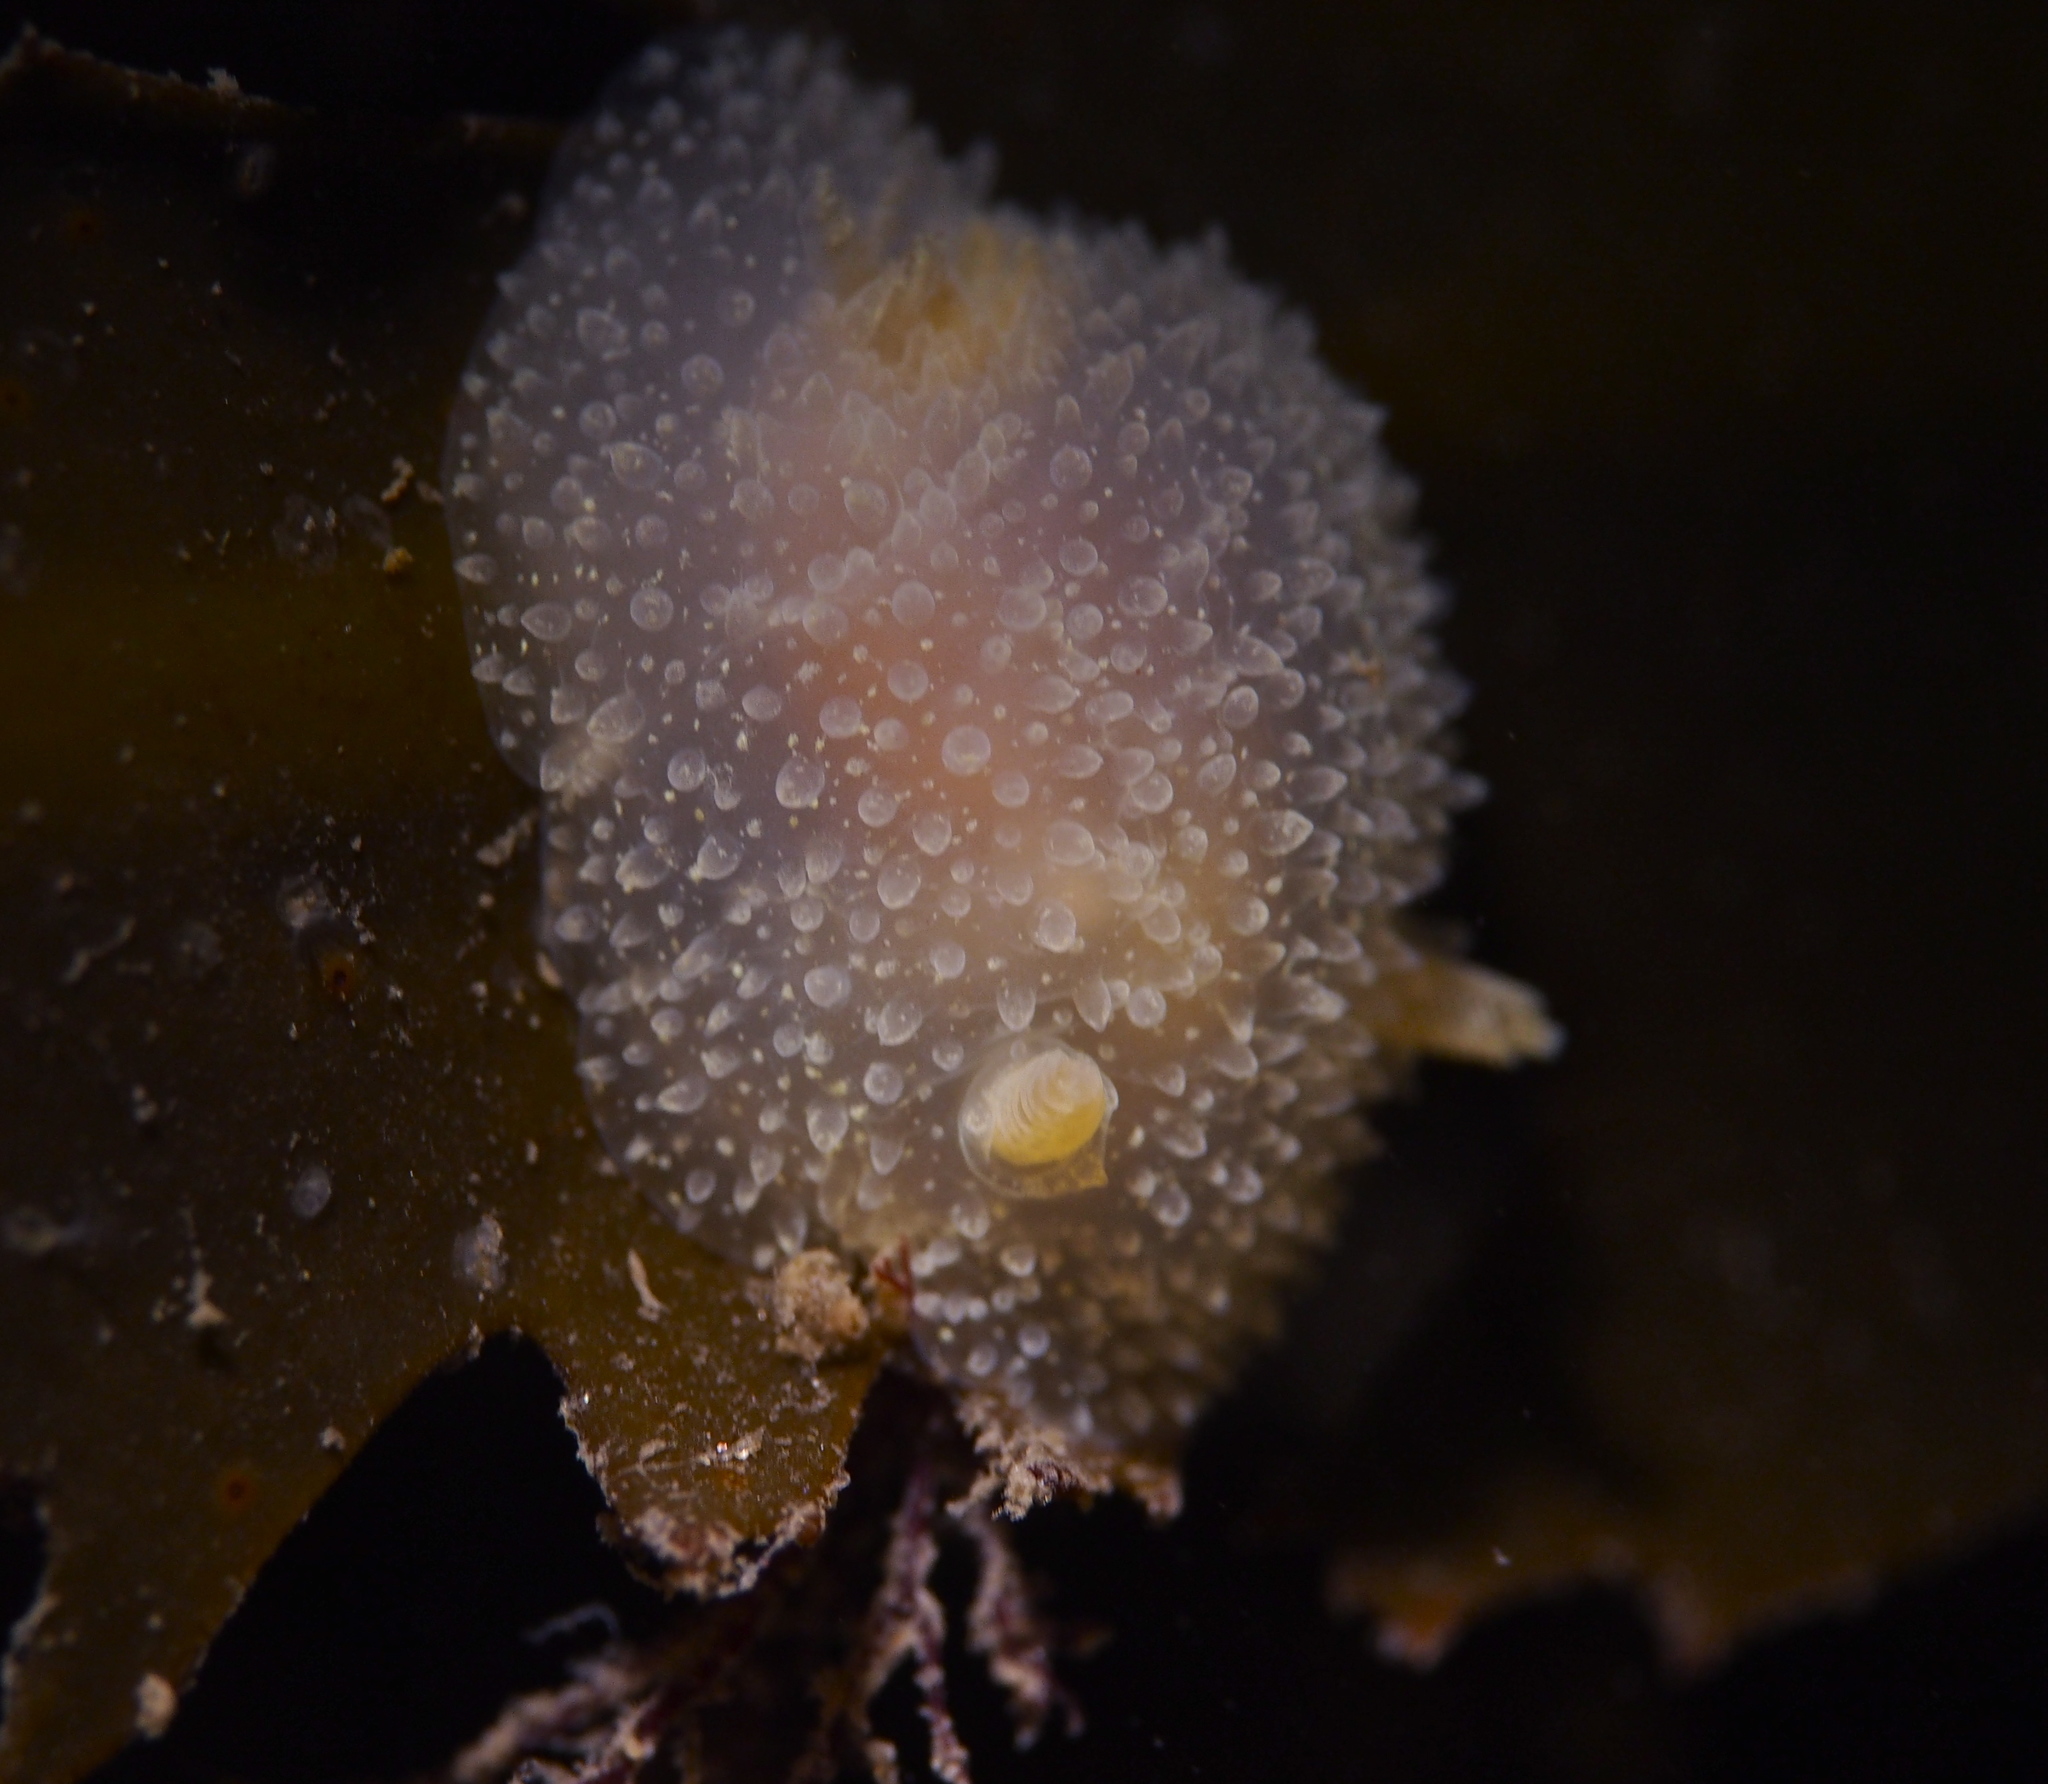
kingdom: Animalia
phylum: Mollusca
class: Gastropoda
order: Nudibranchia
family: Onchidorididae
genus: Acanthodoris
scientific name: Acanthodoris pilosa
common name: Hairy spiny doris
